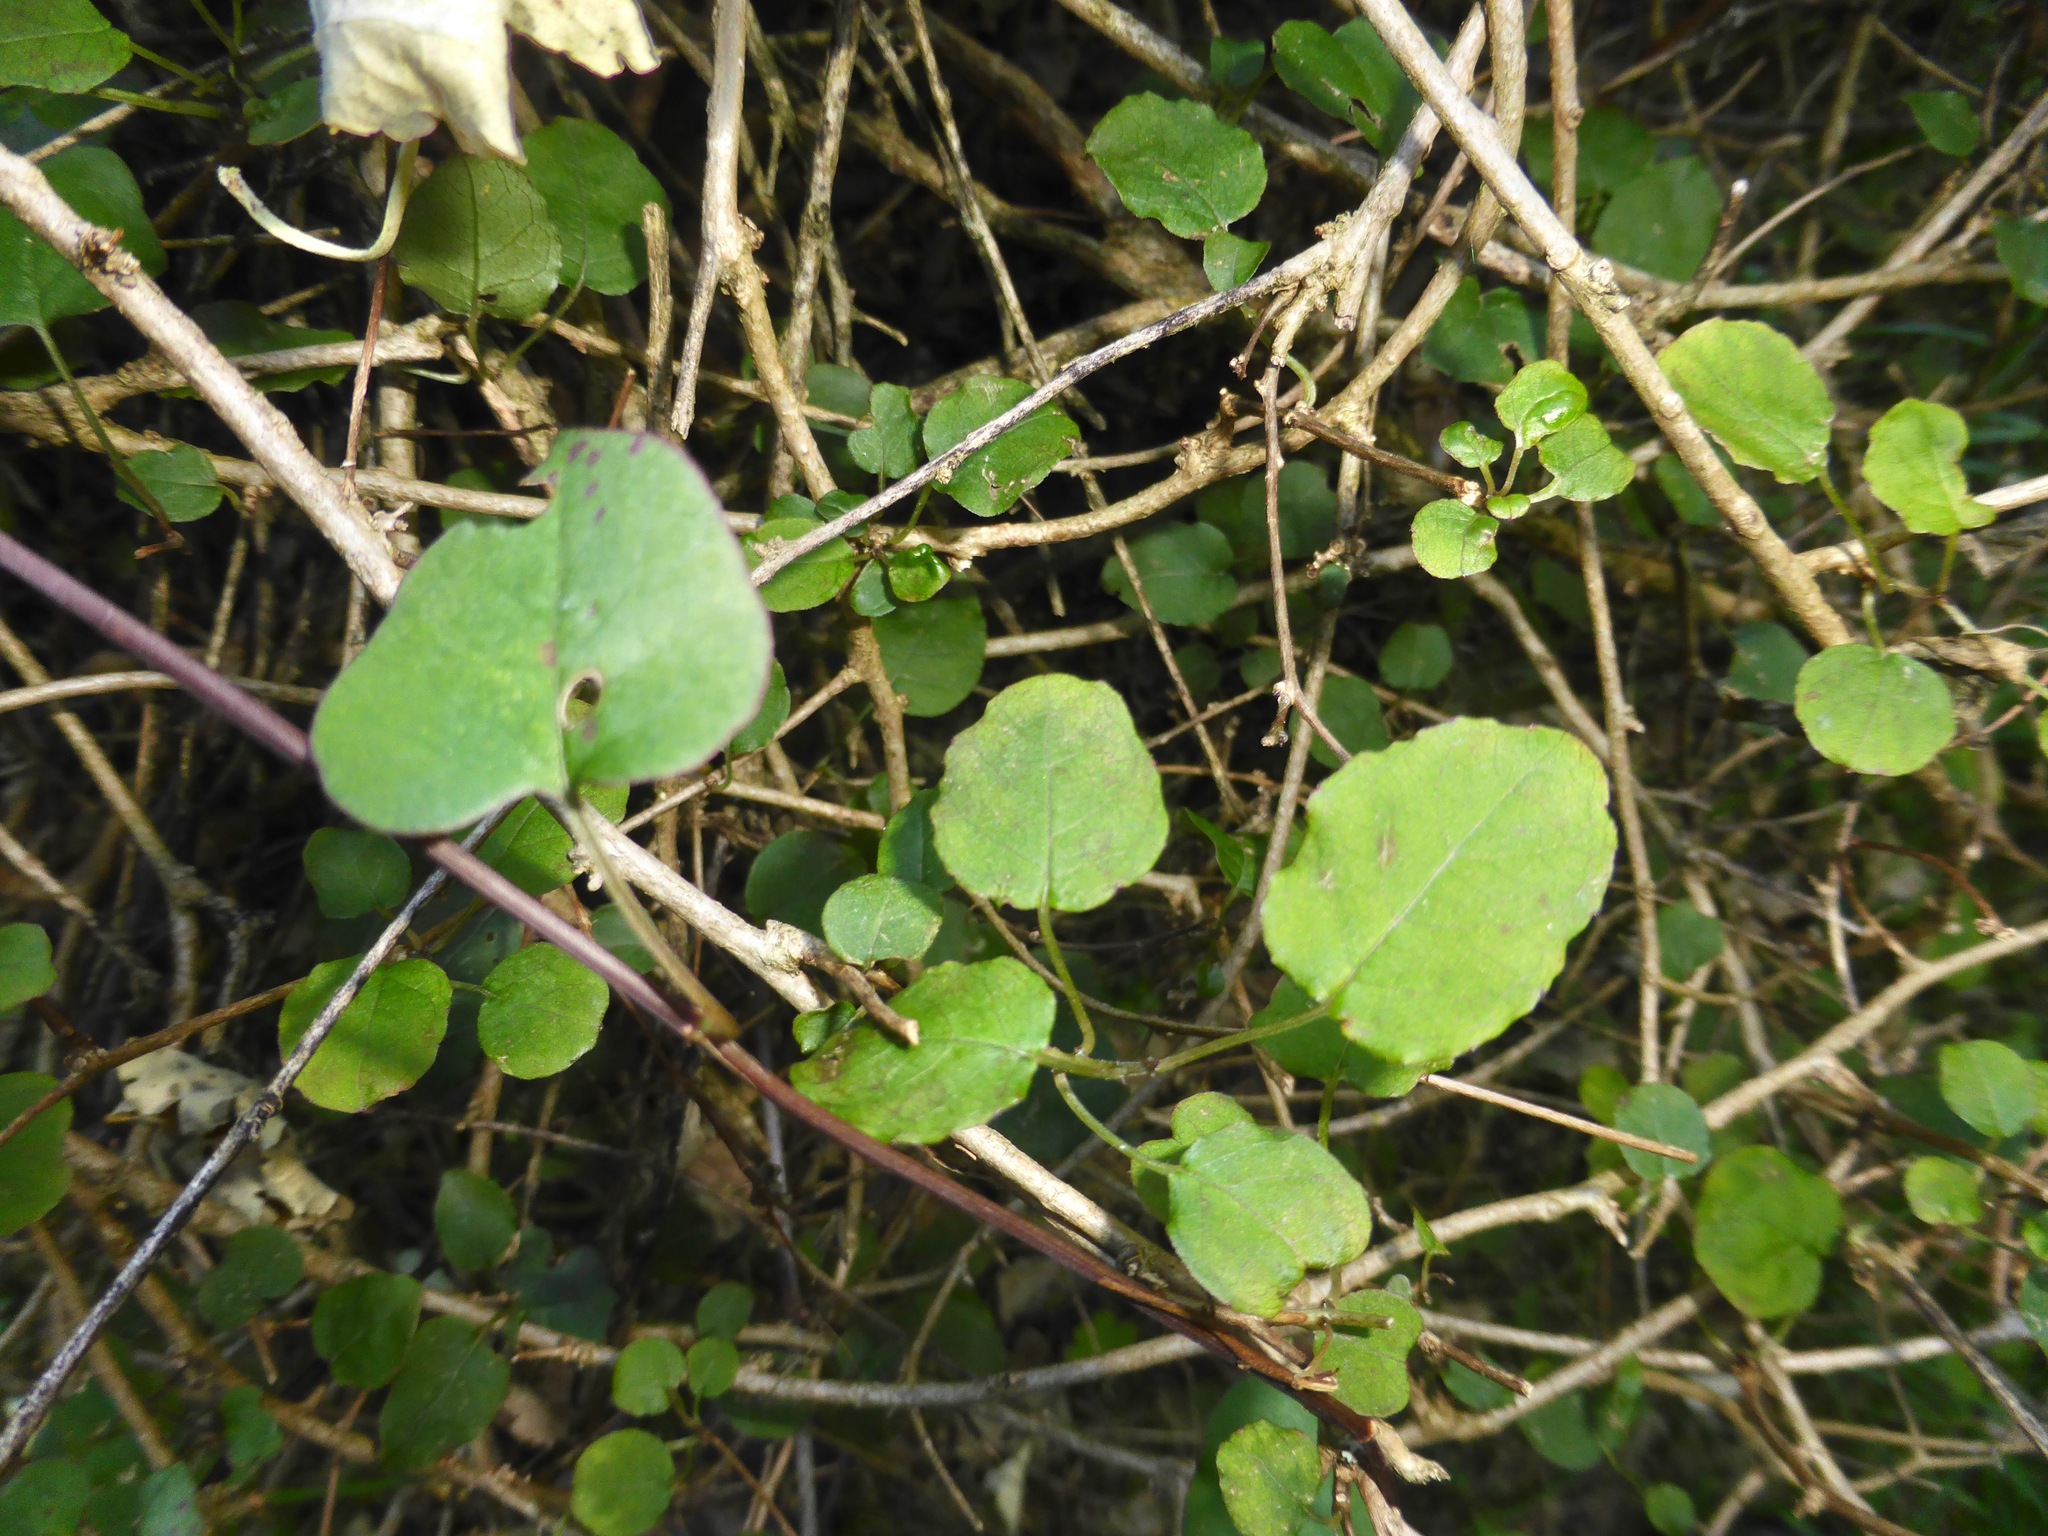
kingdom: Plantae
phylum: Tracheophyta
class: Magnoliopsida
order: Myrtales
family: Onagraceae
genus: Fuchsia
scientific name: Fuchsia perscandens
